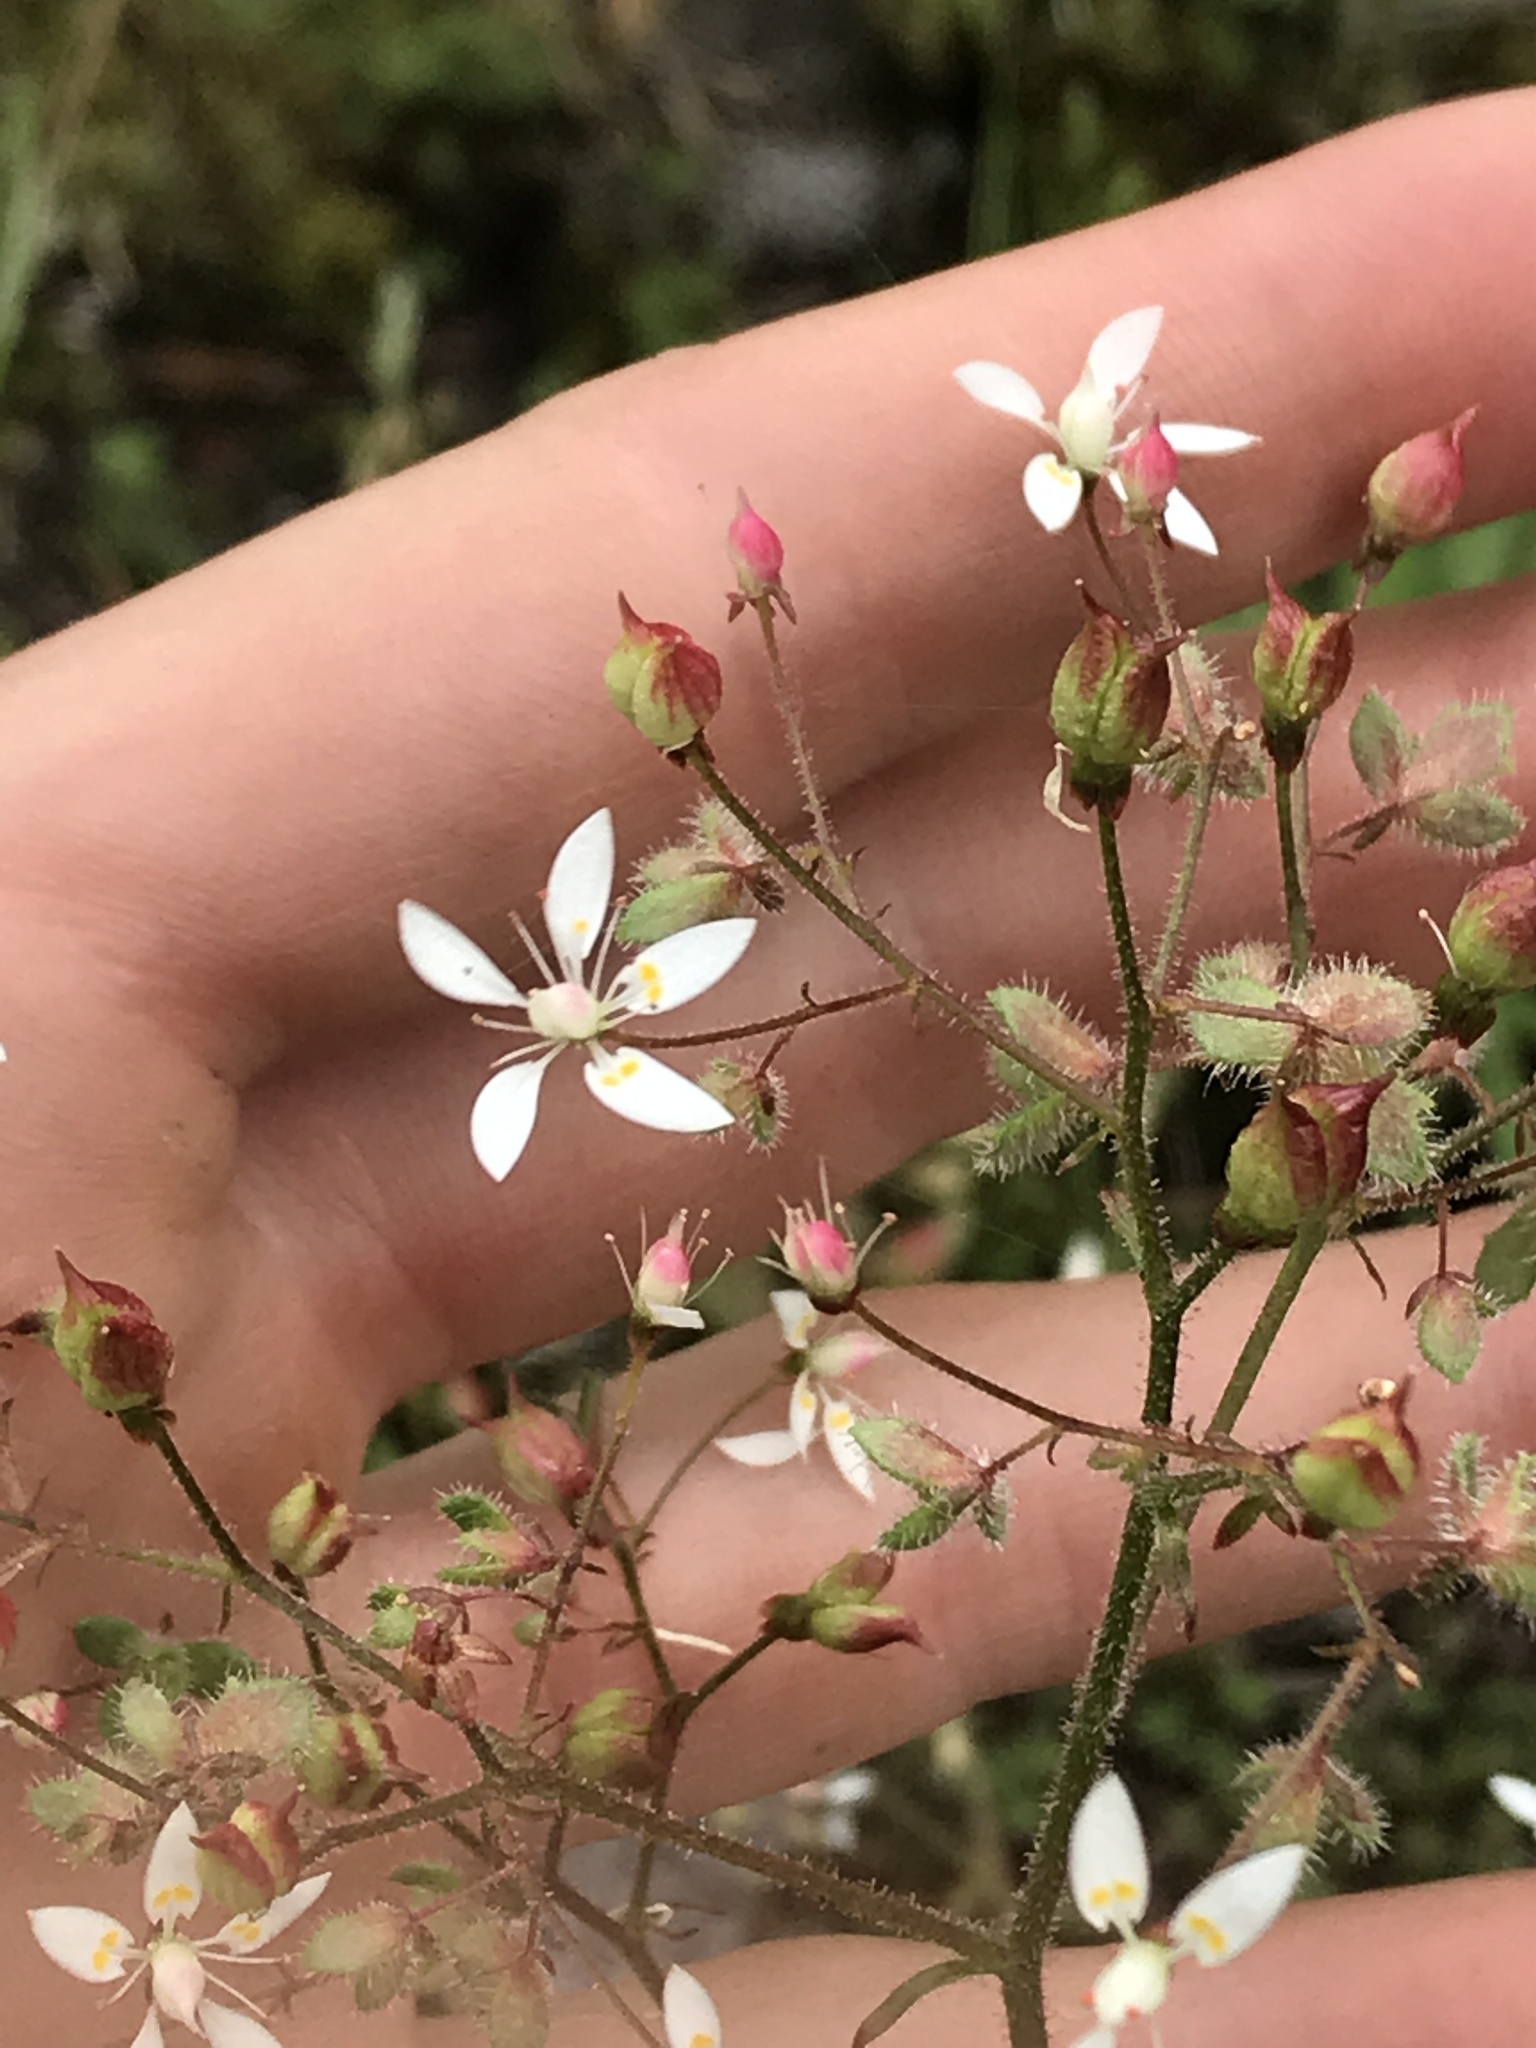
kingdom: Plantae
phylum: Tracheophyta
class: Magnoliopsida
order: Saxifragales
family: Saxifragaceae
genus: Micranthes
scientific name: Micranthes ferruginea
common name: Rusty saxifrage
